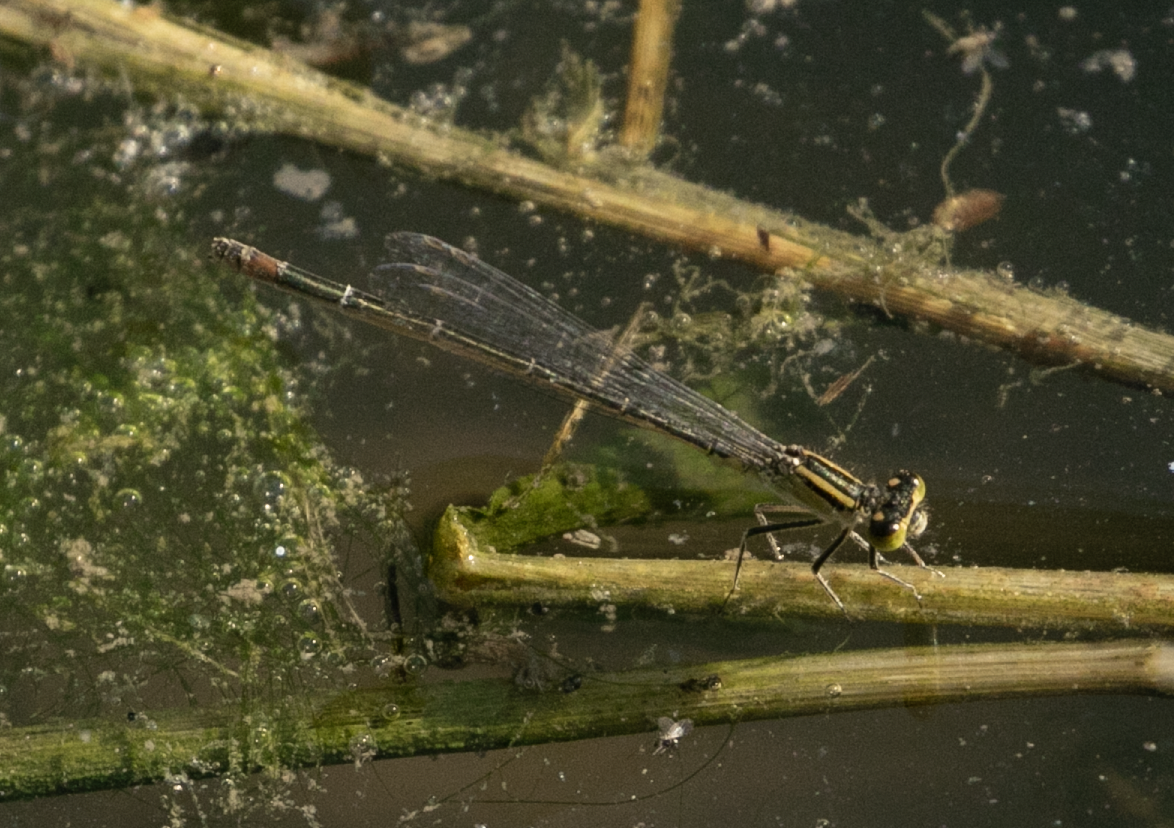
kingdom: Animalia
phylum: Arthropoda
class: Insecta
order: Odonata
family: Coenagrionidae
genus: Ischnura
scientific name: Ischnura elegans
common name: Blue-tailed damselfly
